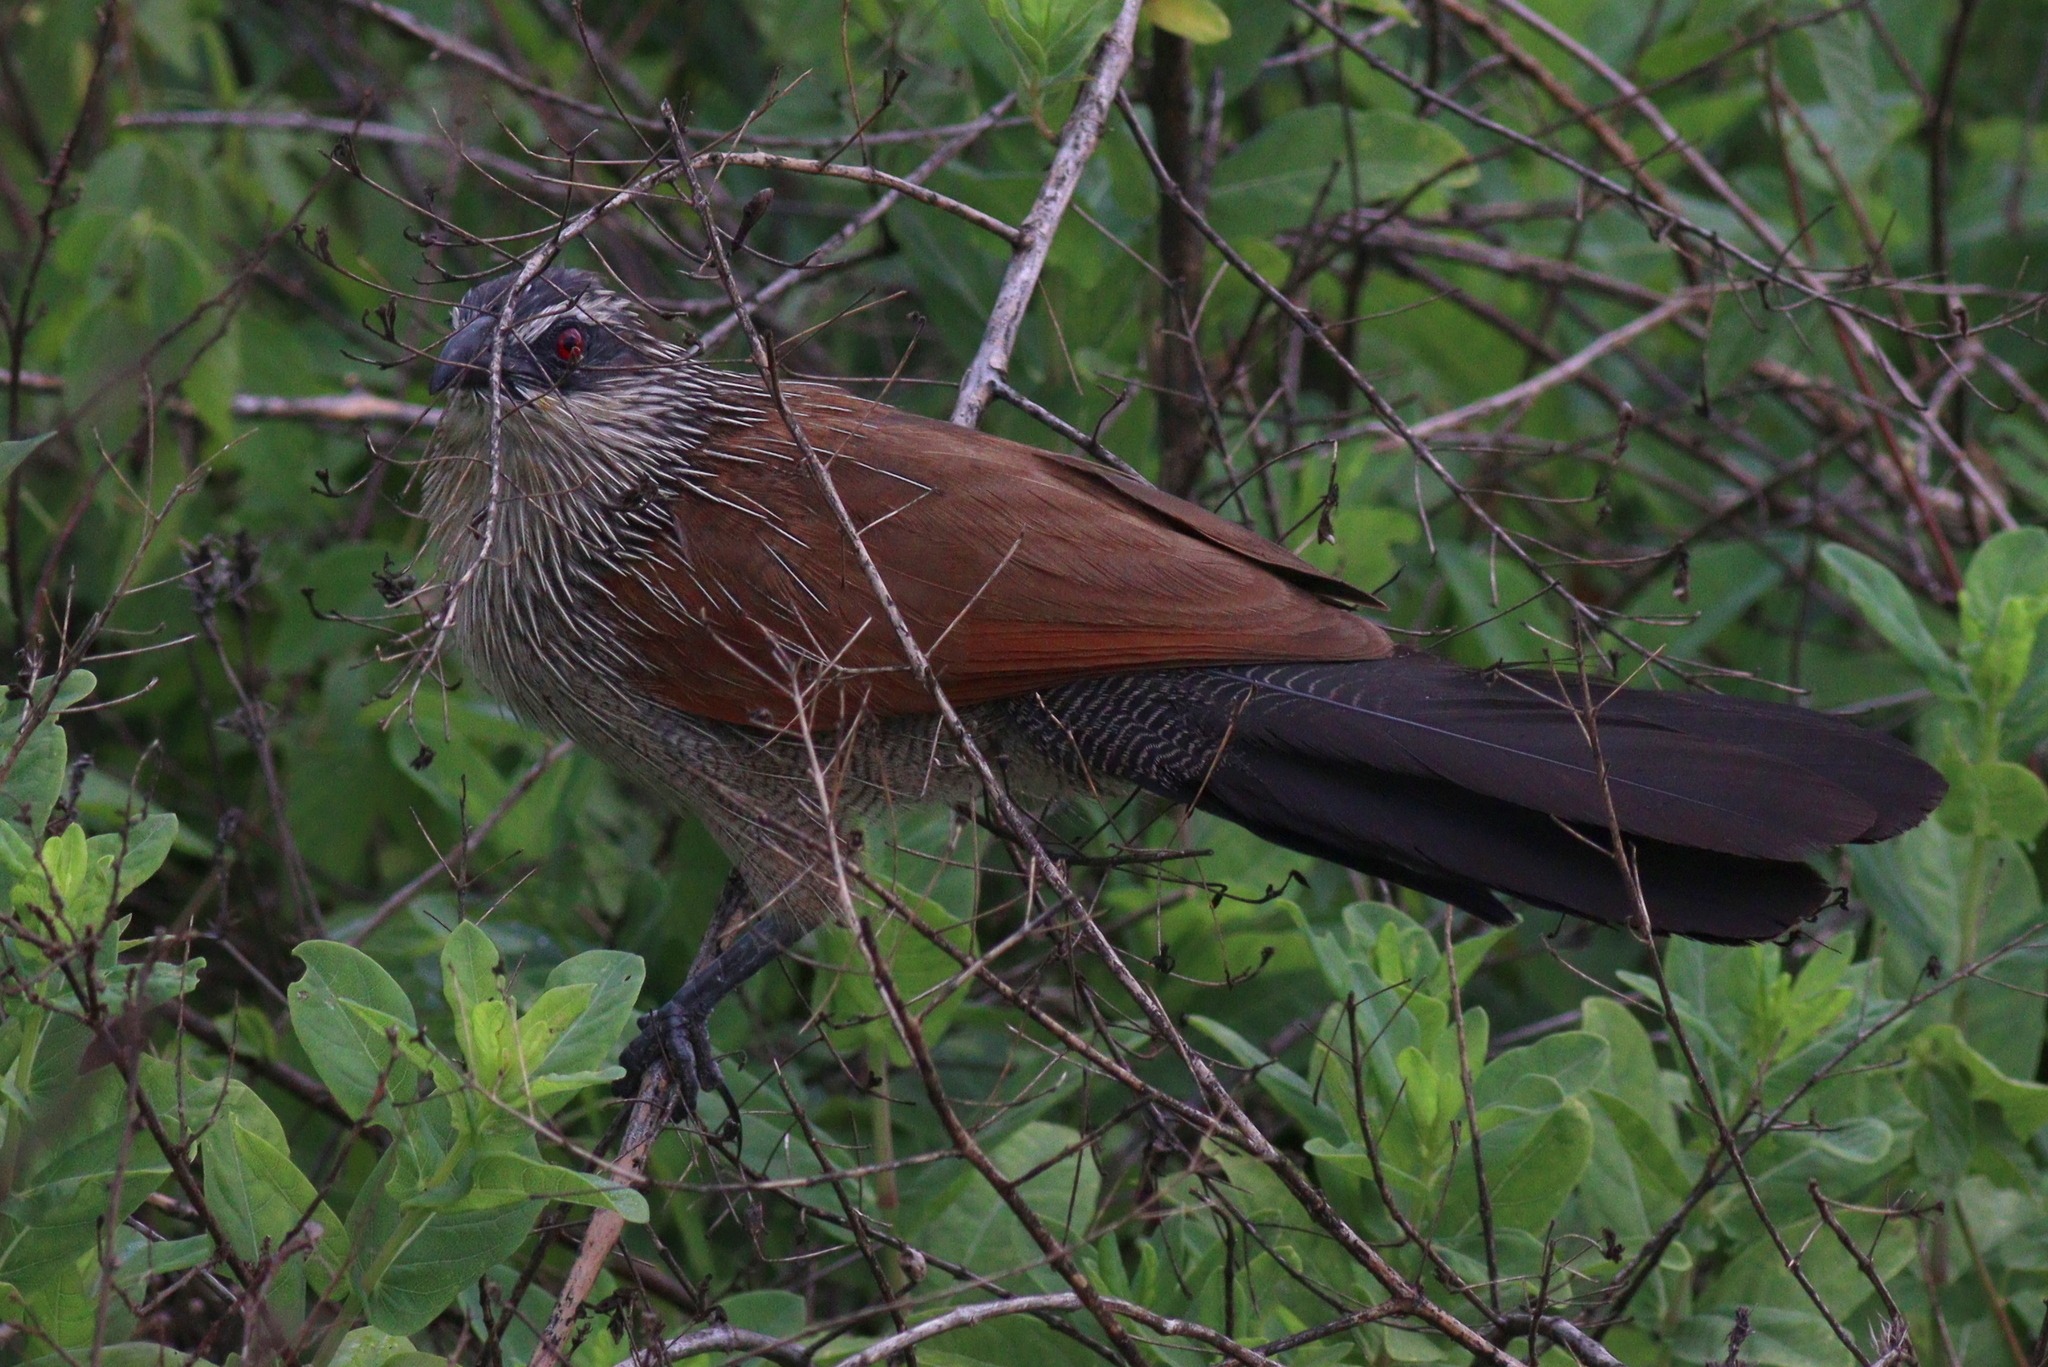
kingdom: Animalia
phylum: Chordata
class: Aves
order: Cuculiformes
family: Cuculidae
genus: Centropus
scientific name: Centropus superciliosus
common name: White-browed coucal
